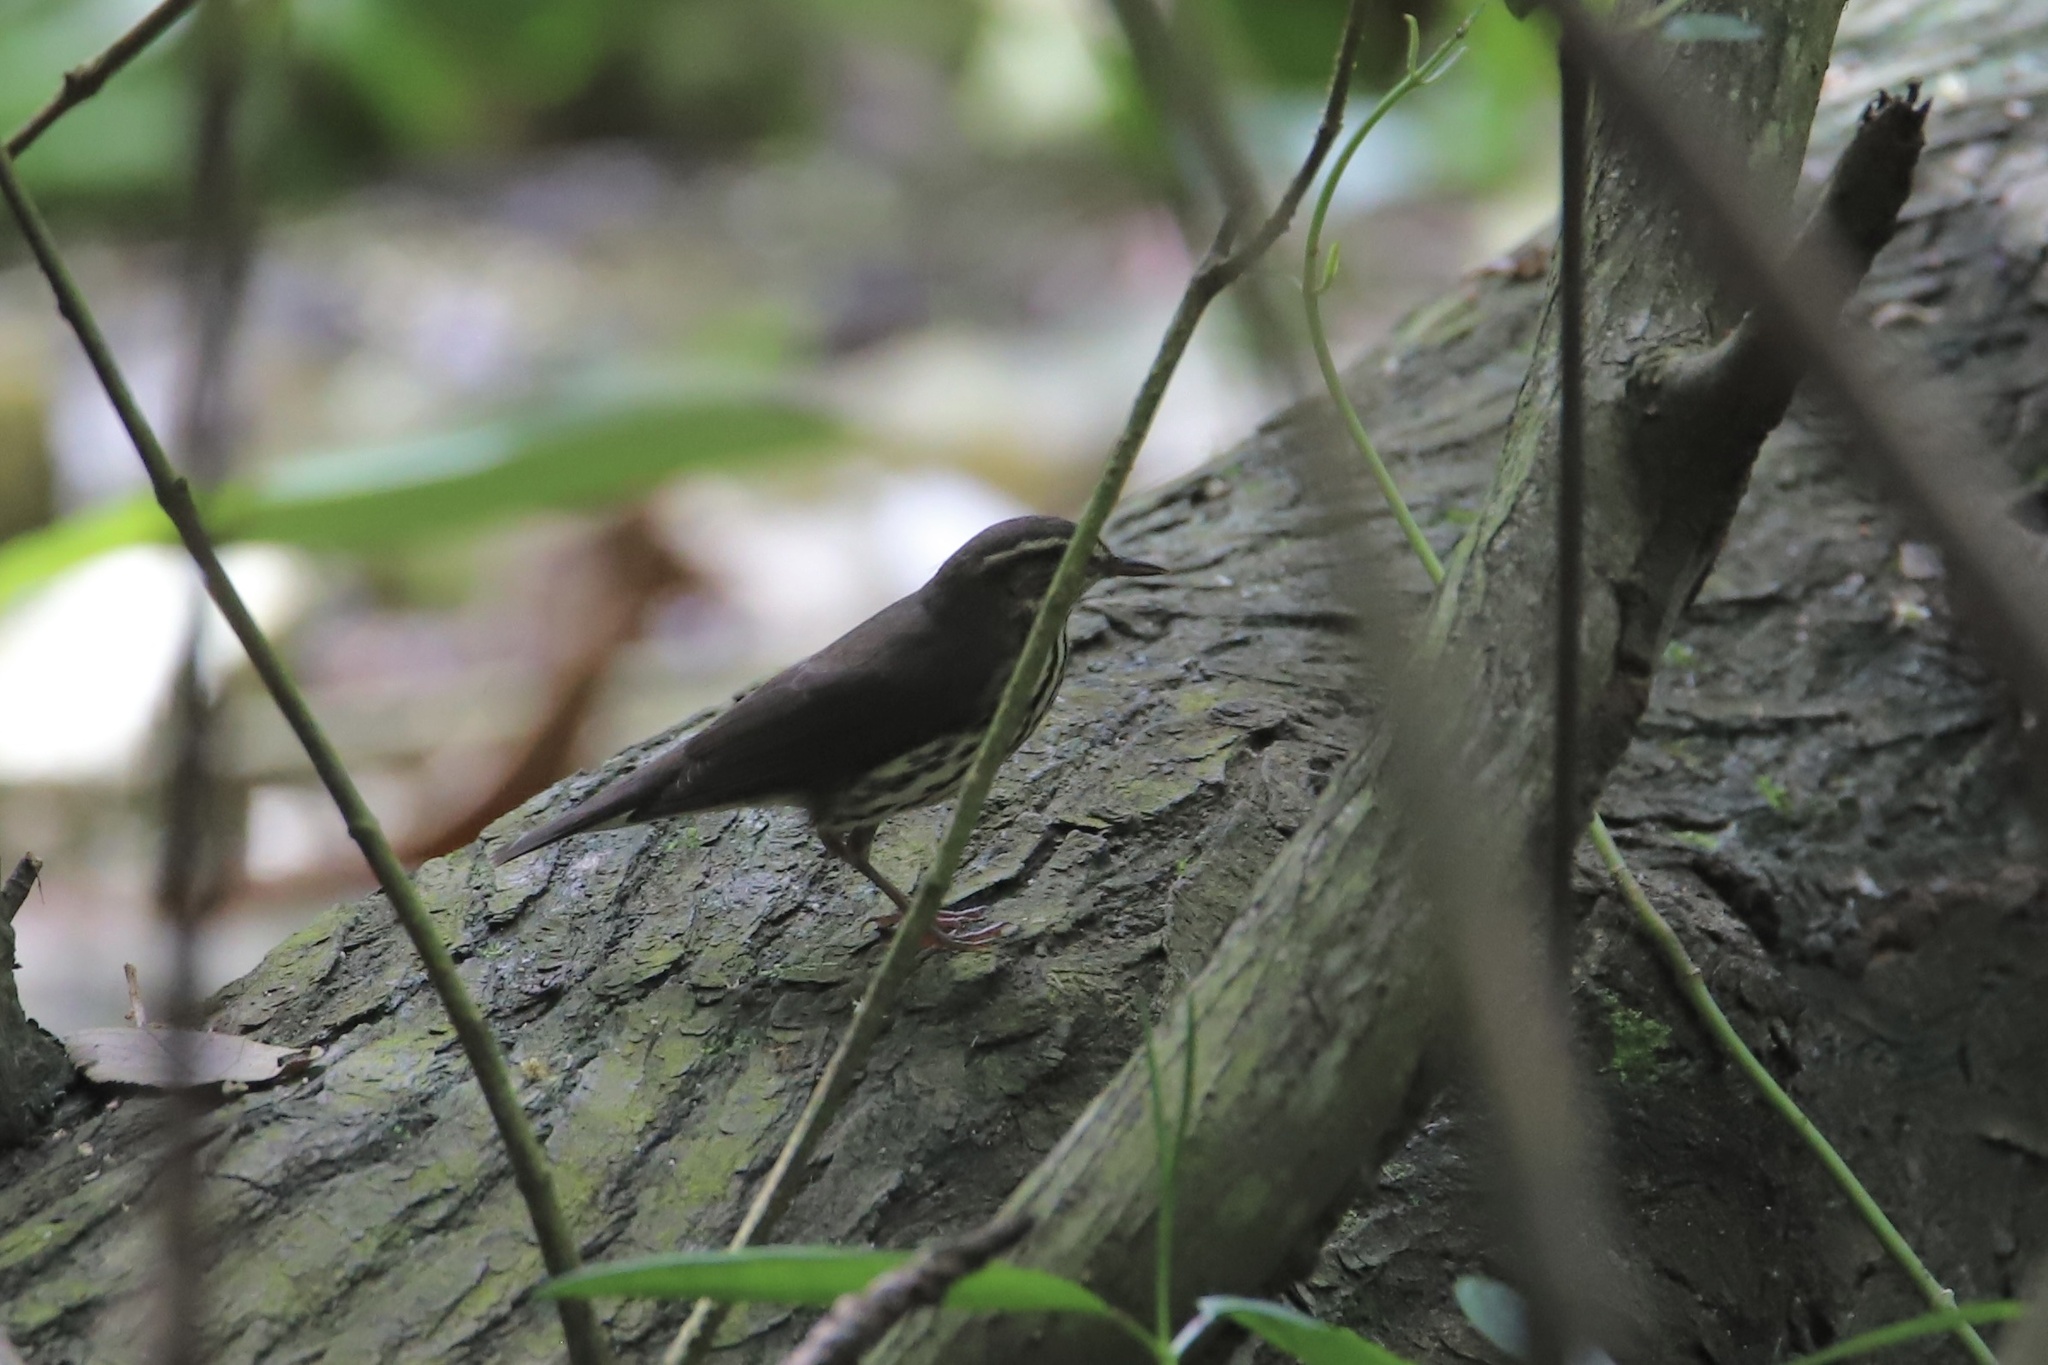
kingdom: Animalia
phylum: Chordata
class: Aves
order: Passeriformes
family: Parulidae
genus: Parkesia
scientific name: Parkesia noveboracensis
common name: Northern waterthrush
